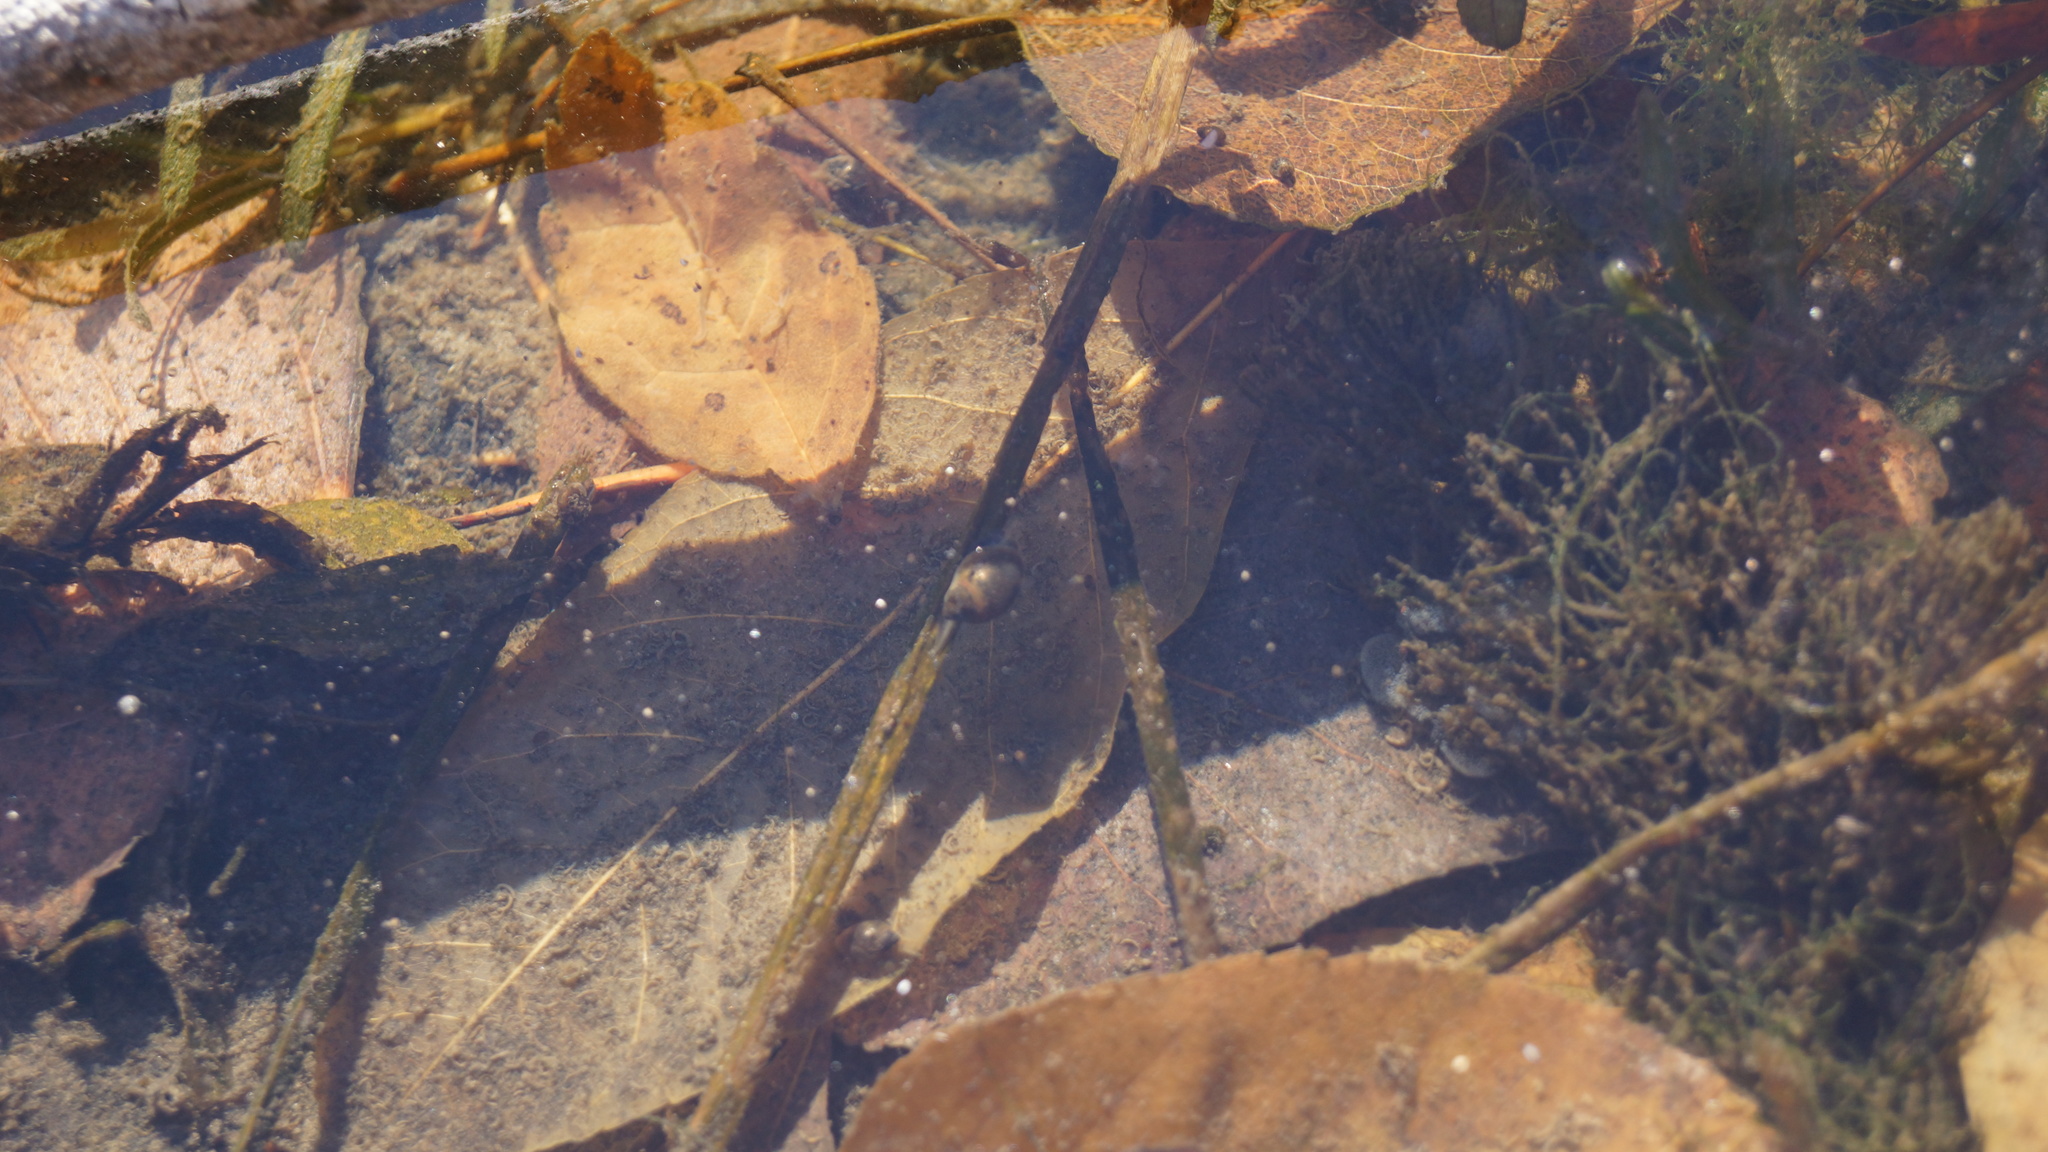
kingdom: Animalia
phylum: Mollusca
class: Gastropoda
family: Physidae
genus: Physella
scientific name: Physella acuta
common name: European physa
